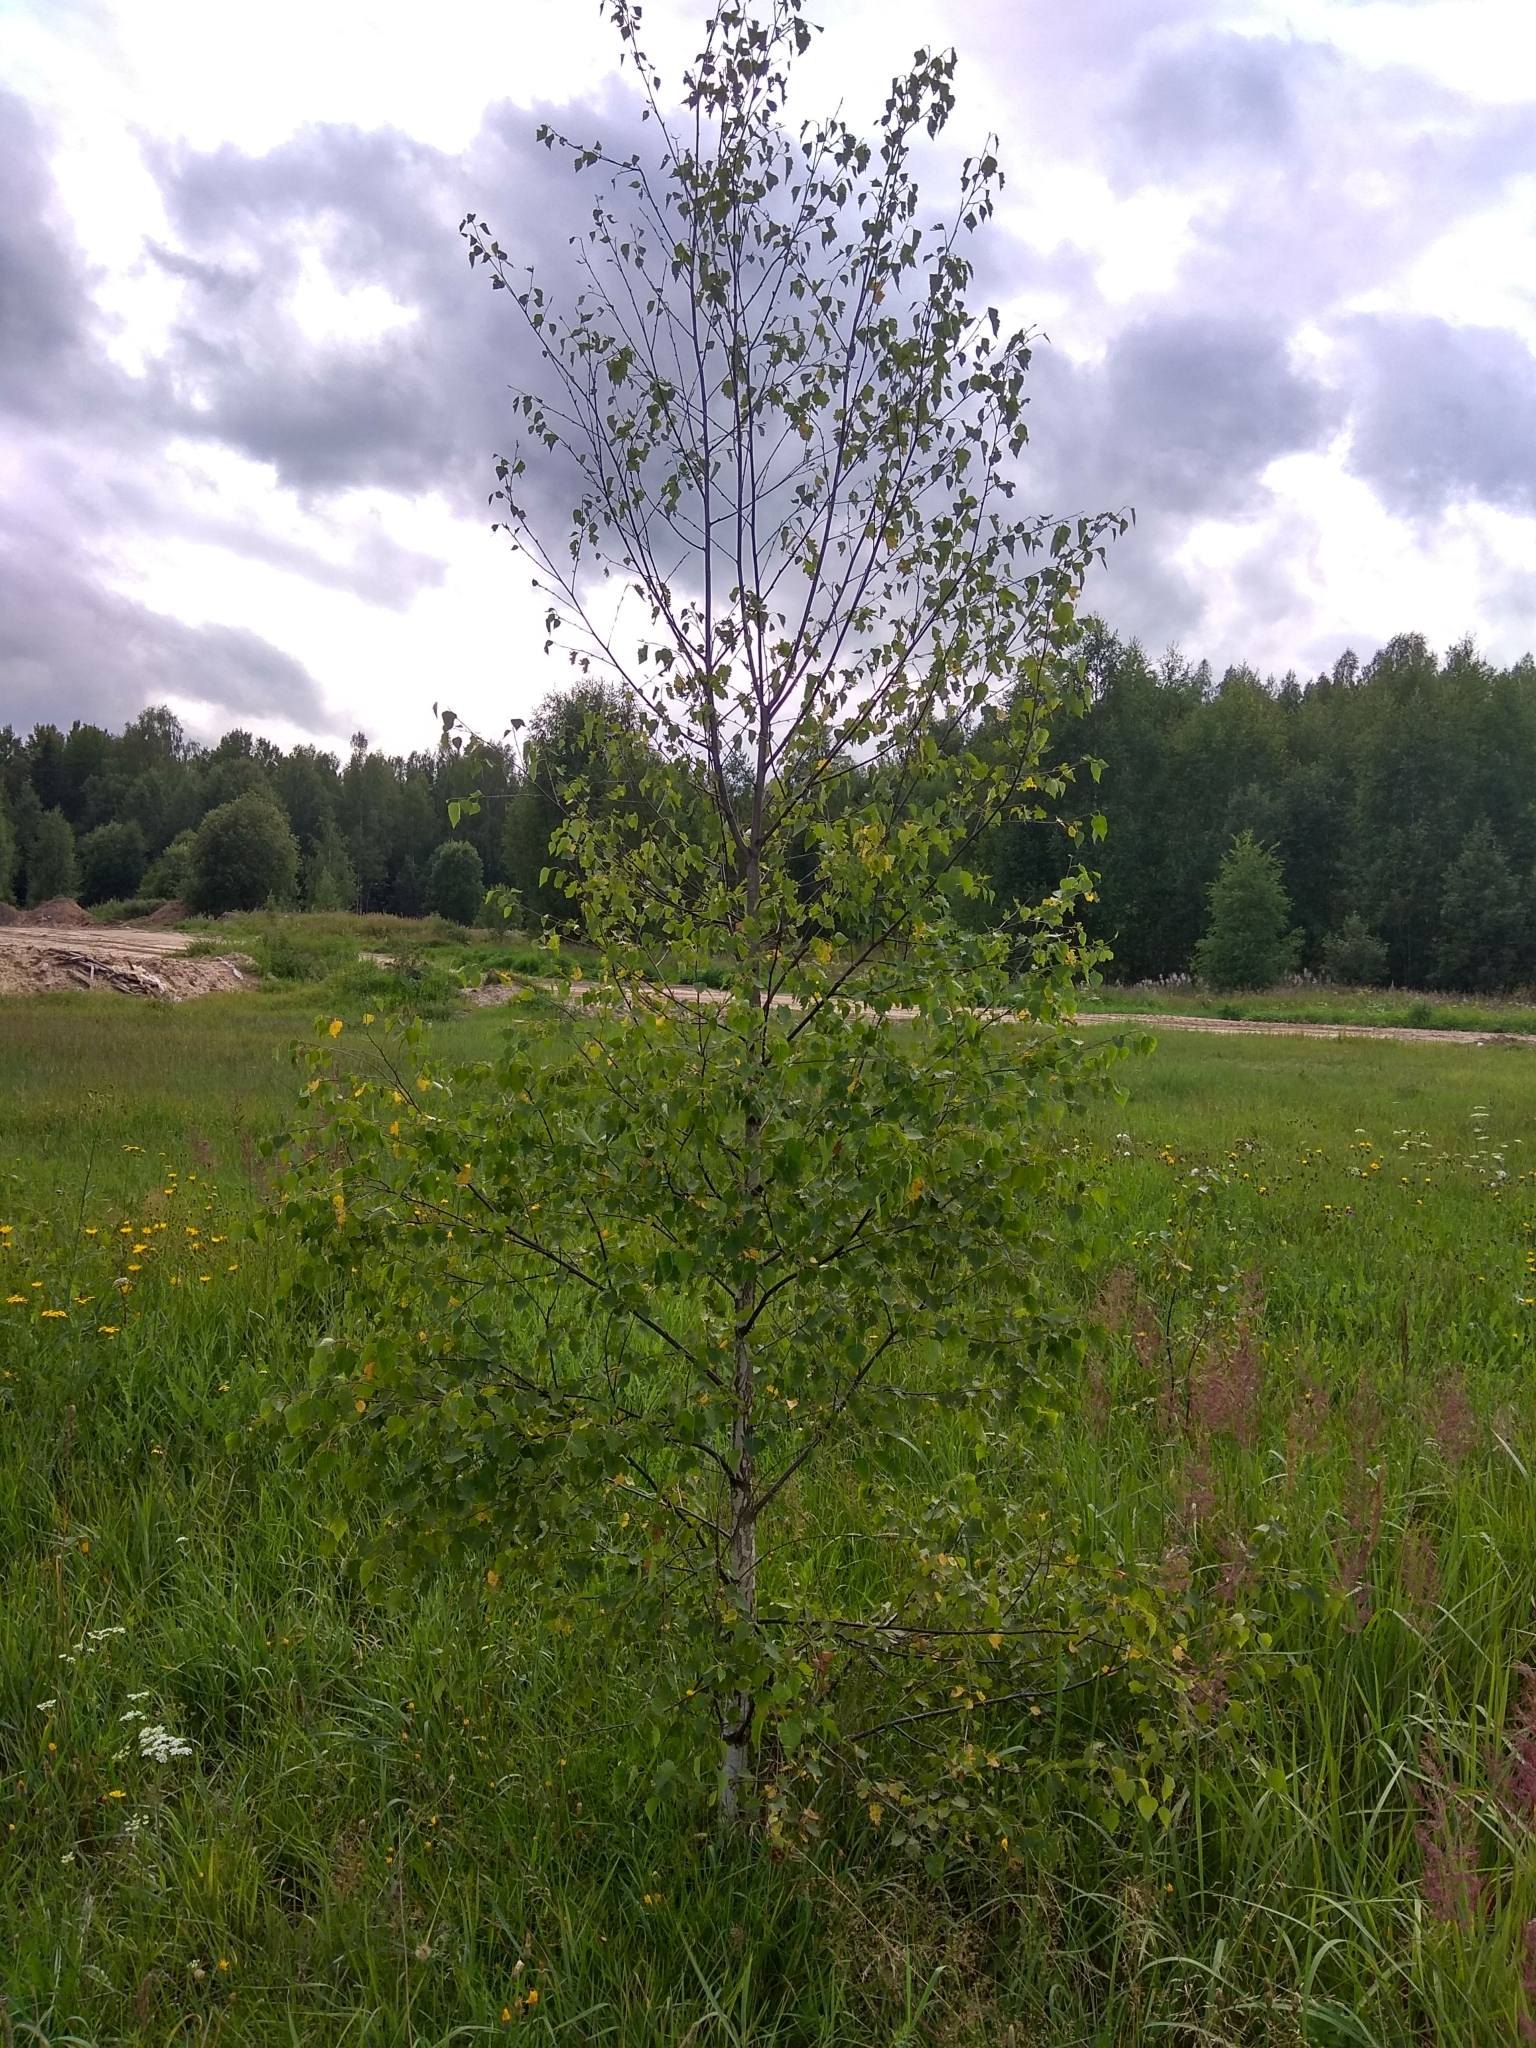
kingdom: Plantae
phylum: Tracheophyta
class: Magnoliopsida
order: Fagales
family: Betulaceae
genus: Betula
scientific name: Betula pendula
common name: Silver birch
